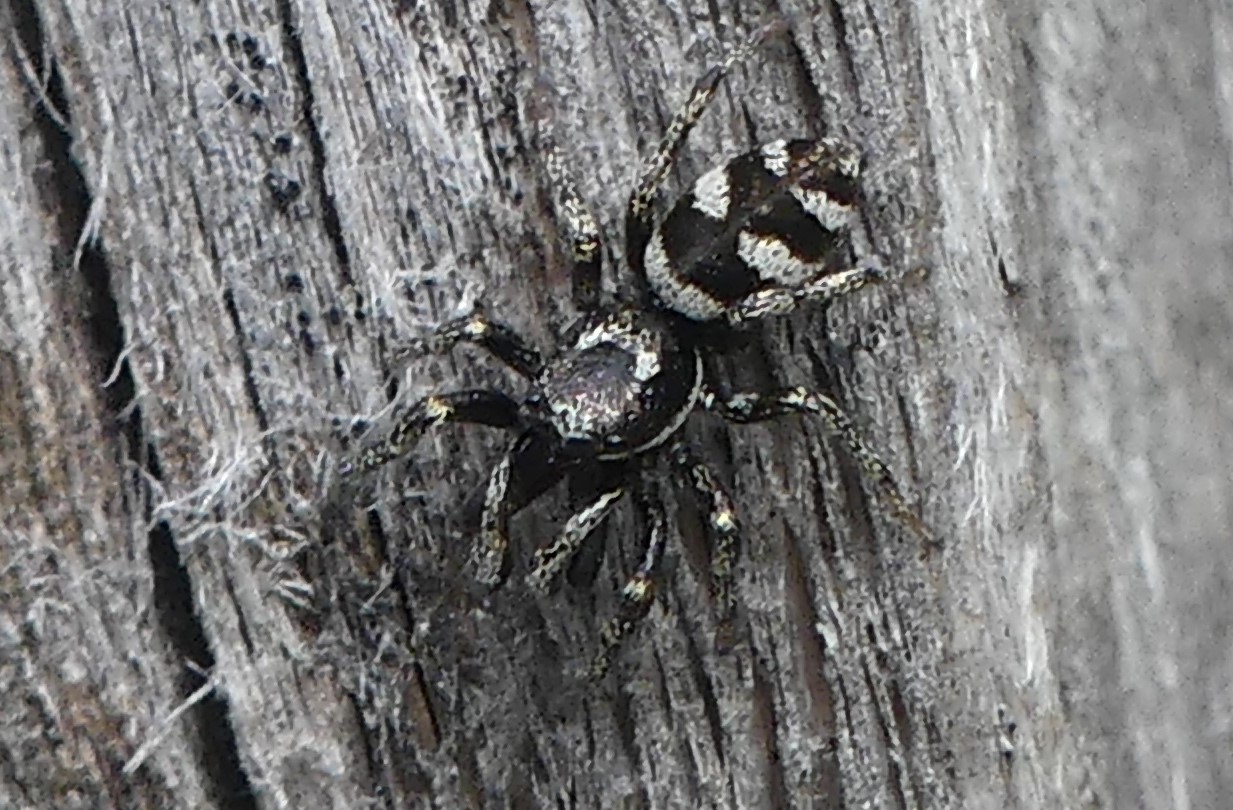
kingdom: Animalia
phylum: Arthropoda
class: Arachnida
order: Araneae
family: Salticidae
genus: Salticus
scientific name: Salticus scenicus
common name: Zebra jumper
